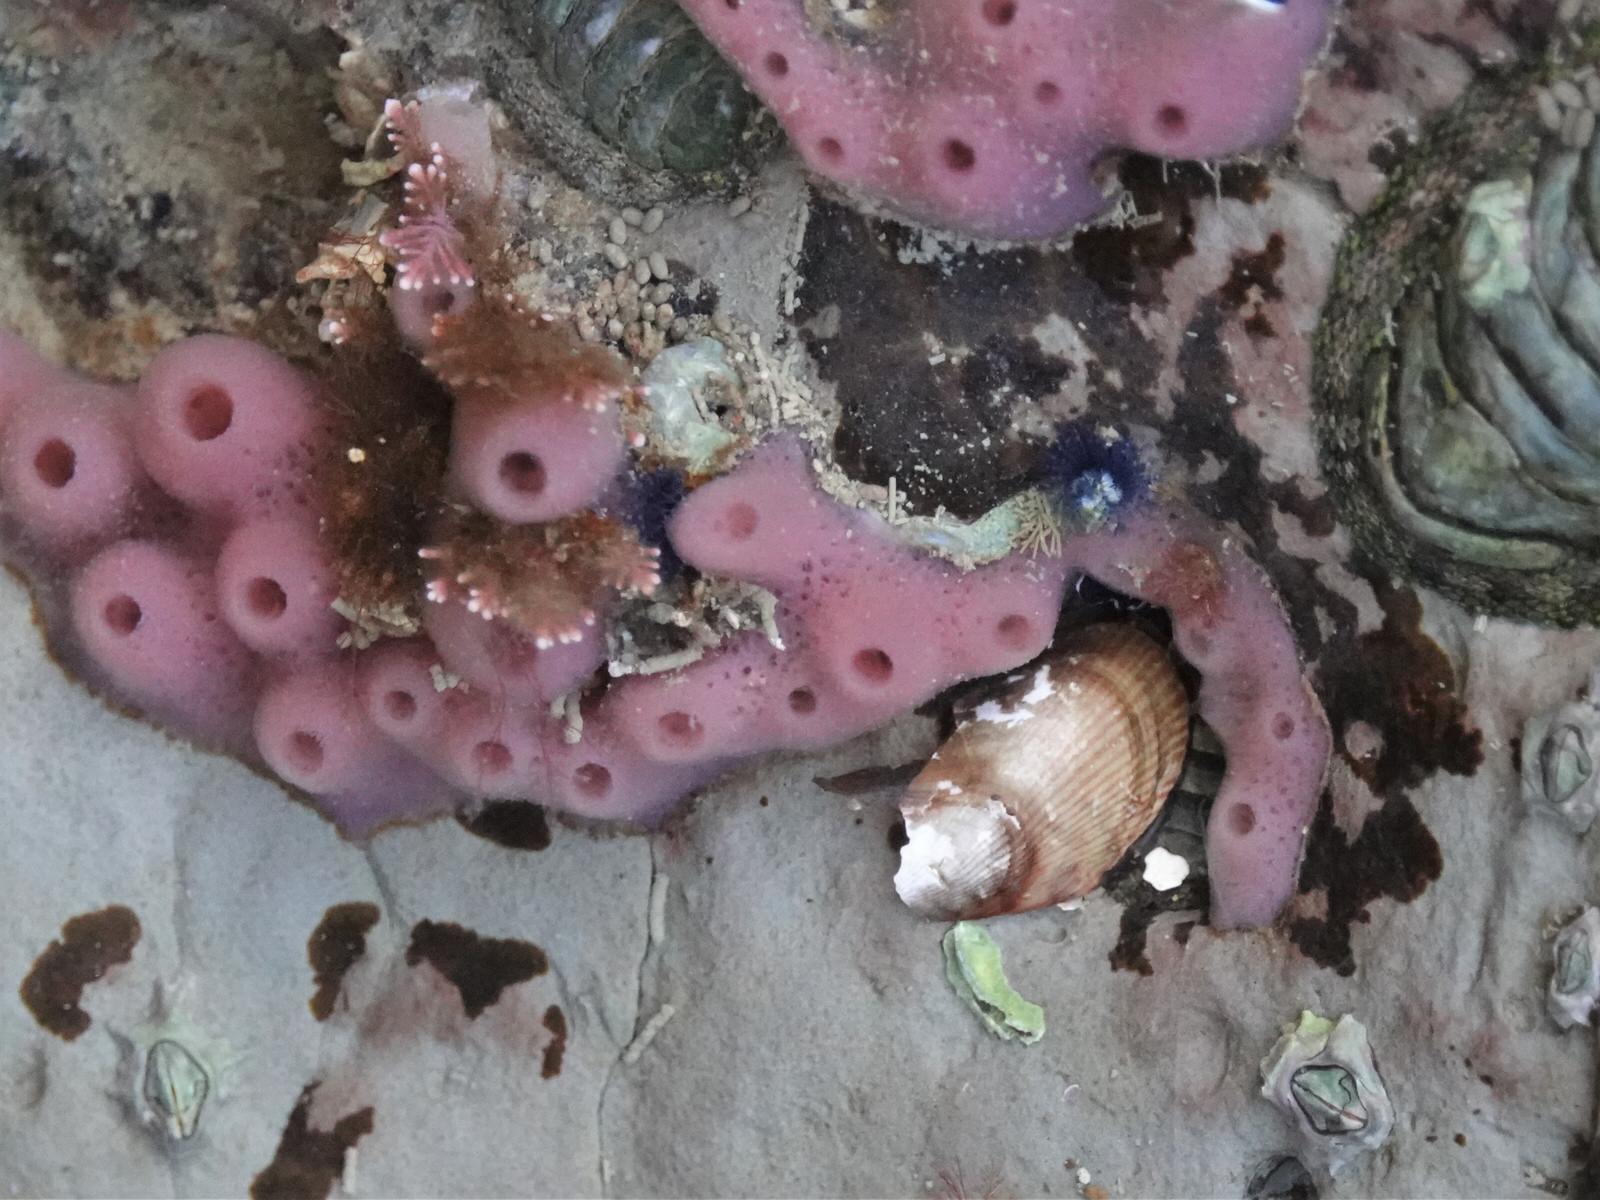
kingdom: Animalia
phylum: Porifera
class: Demospongiae
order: Haplosclerida
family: Chalinidae
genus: Haliclona
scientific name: Haliclona cinerea
